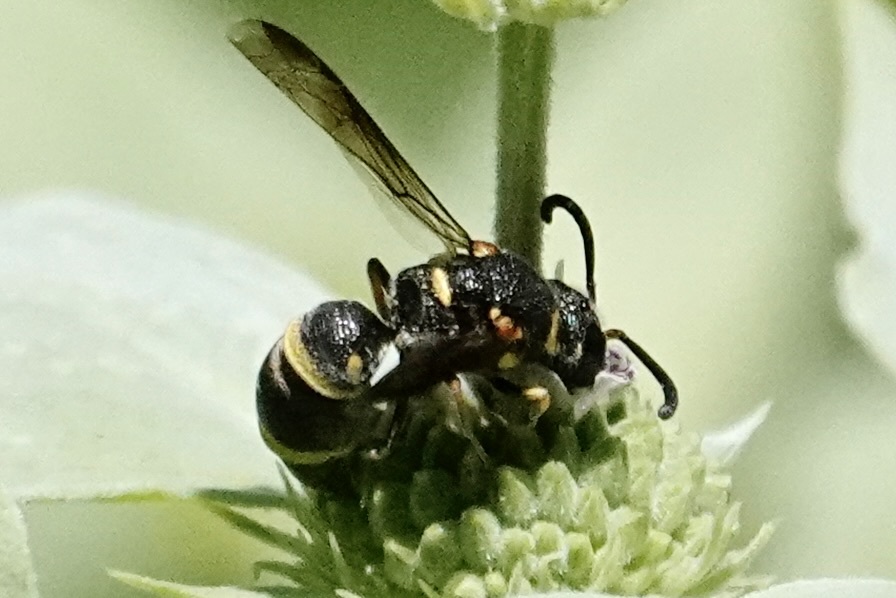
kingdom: Animalia
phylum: Arthropoda
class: Insecta
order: Hymenoptera
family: Eumenidae
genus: Parancistrocerus
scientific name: Parancistrocerus fulvipes
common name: Potter wasp
